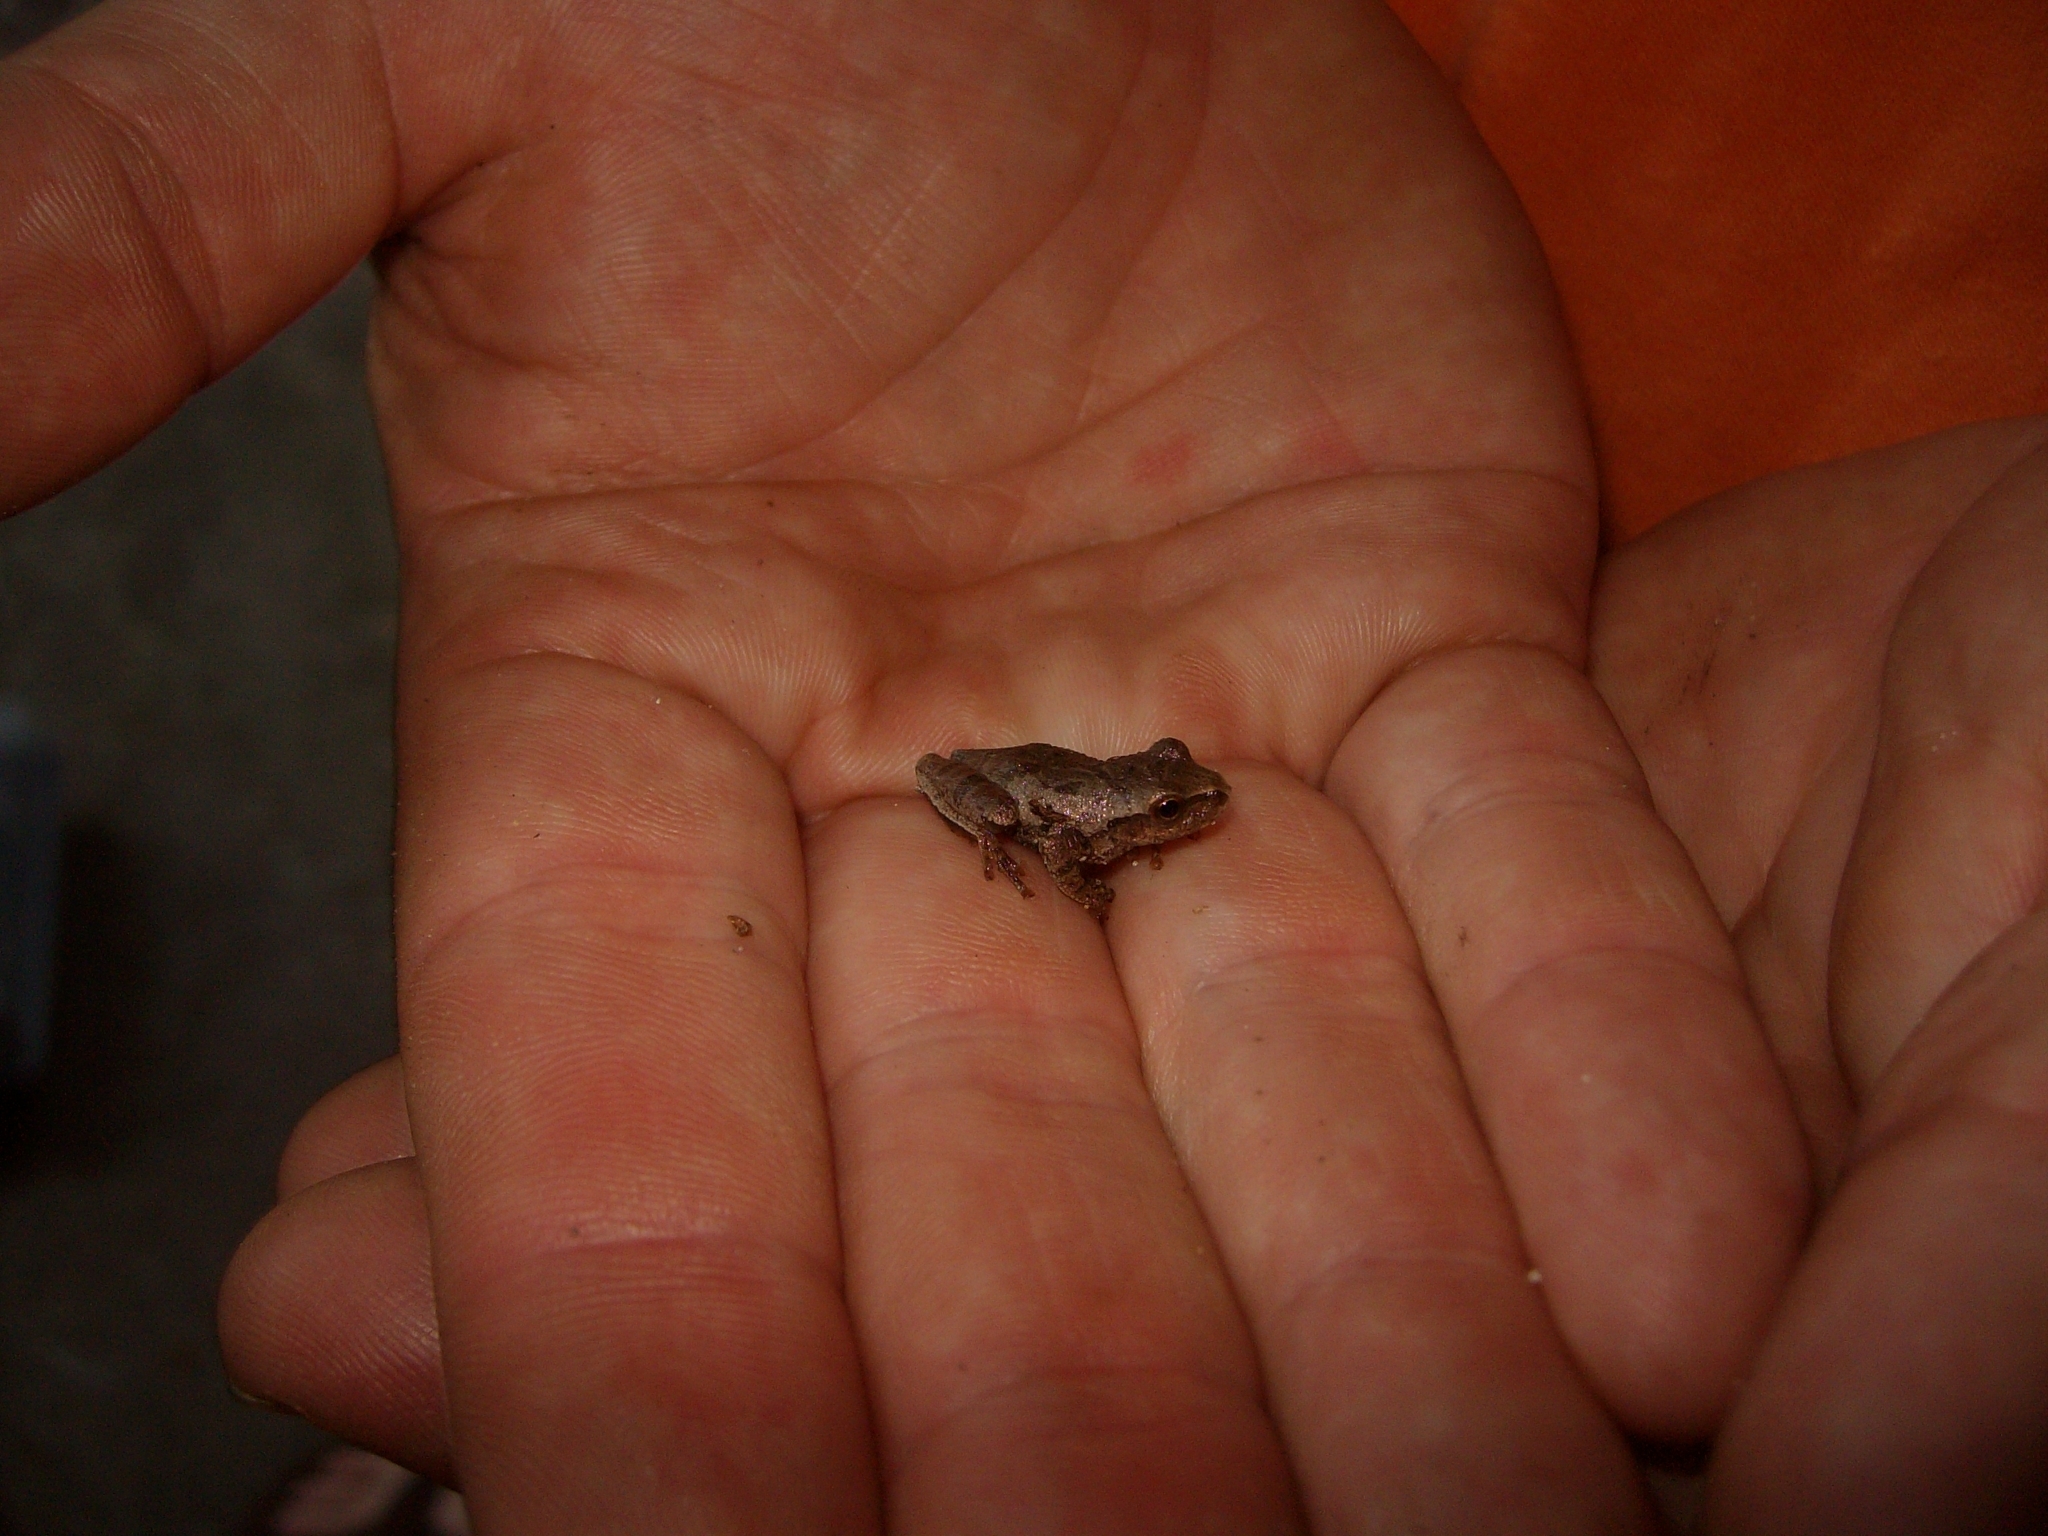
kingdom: Animalia
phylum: Chordata
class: Amphibia
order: Anura
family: Hylidae
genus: Pseudacris
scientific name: Pseudacris crucifer
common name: Spring peeper
